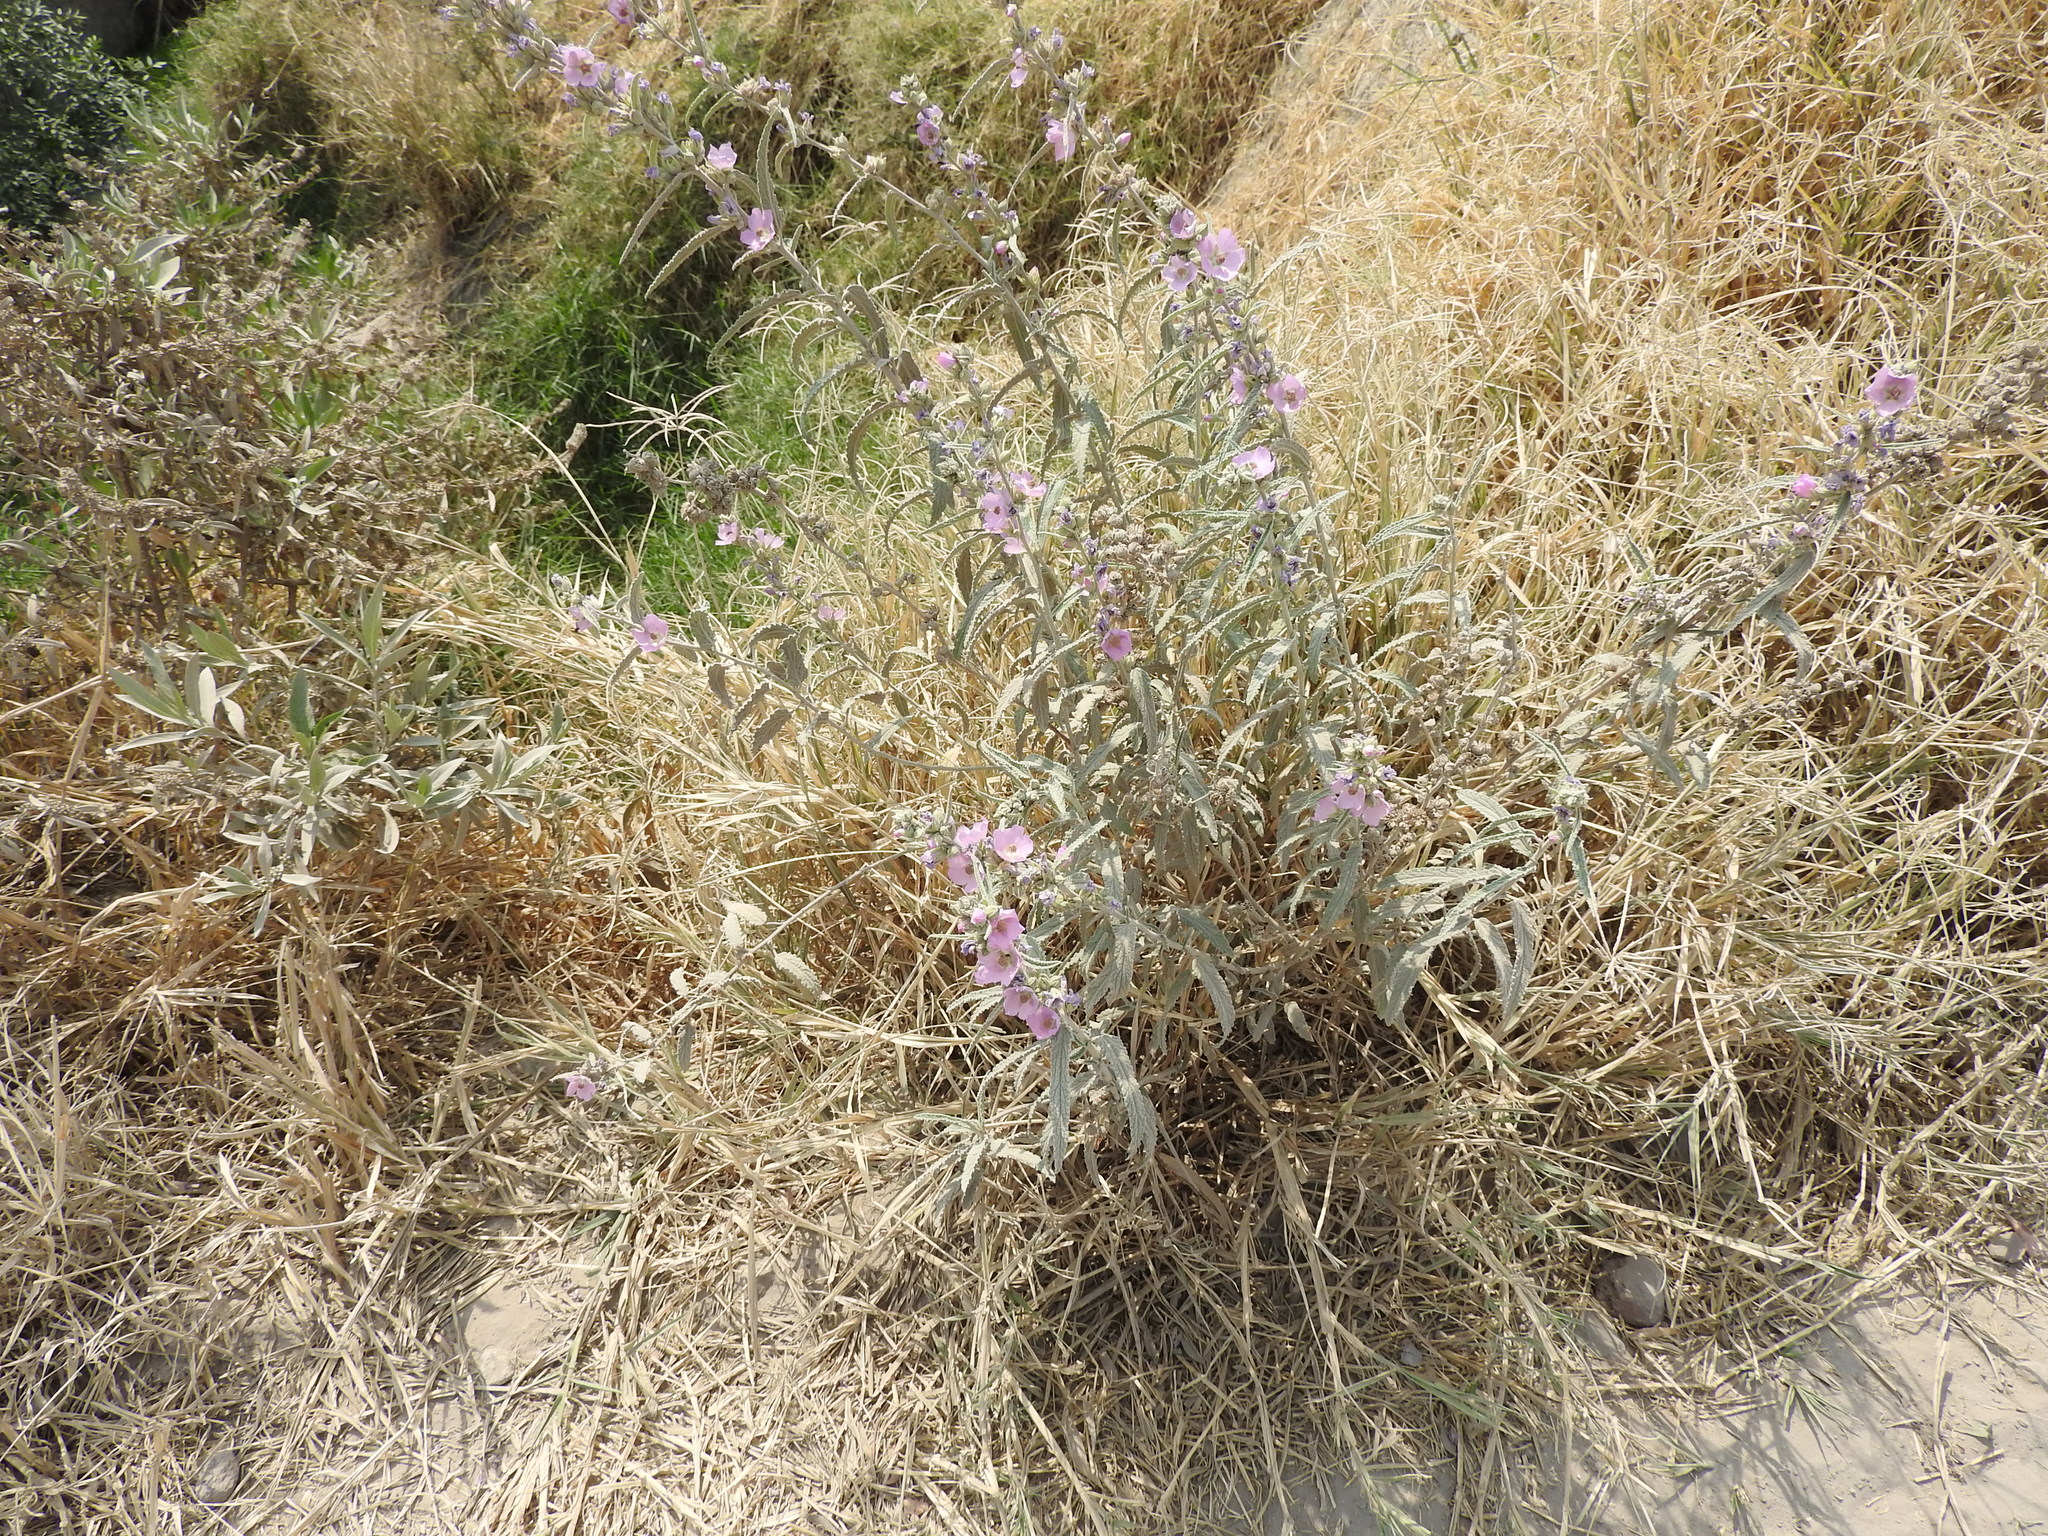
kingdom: Plantae
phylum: Tracheophyta
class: Magnoliopsida
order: Malvales
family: Malvaceae
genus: Sphaeralcea
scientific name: Sphaeralcea angustifolia
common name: Copper globe-mallow
